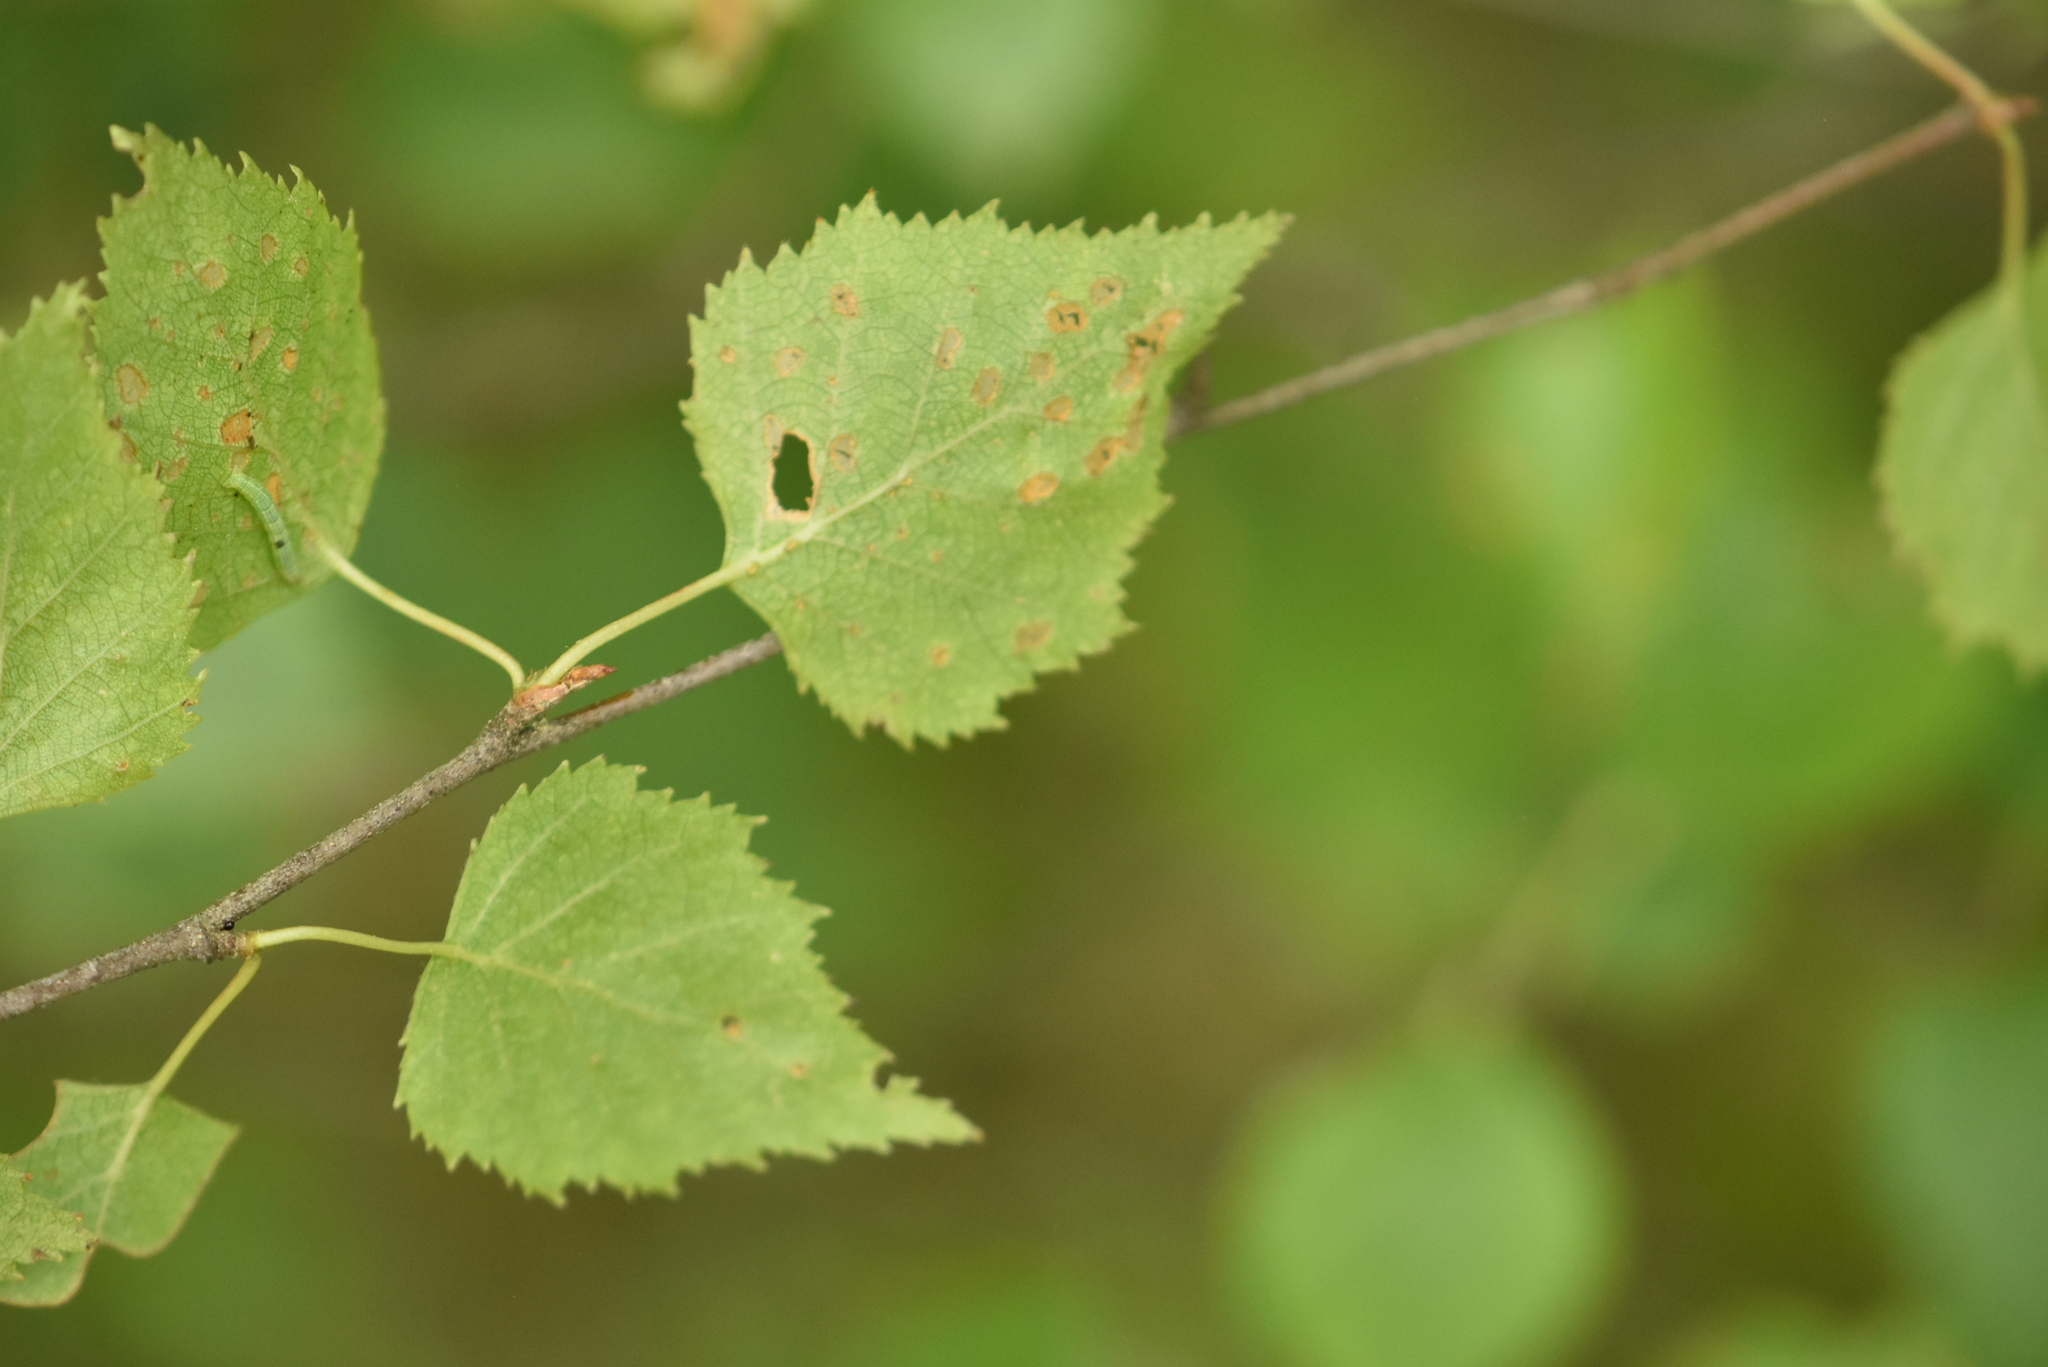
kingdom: Plantae
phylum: Tracheophyta
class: Magnoliopsida
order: Fagales
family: Betulaceae
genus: Betula
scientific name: Betula pendula
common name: Silver birch
